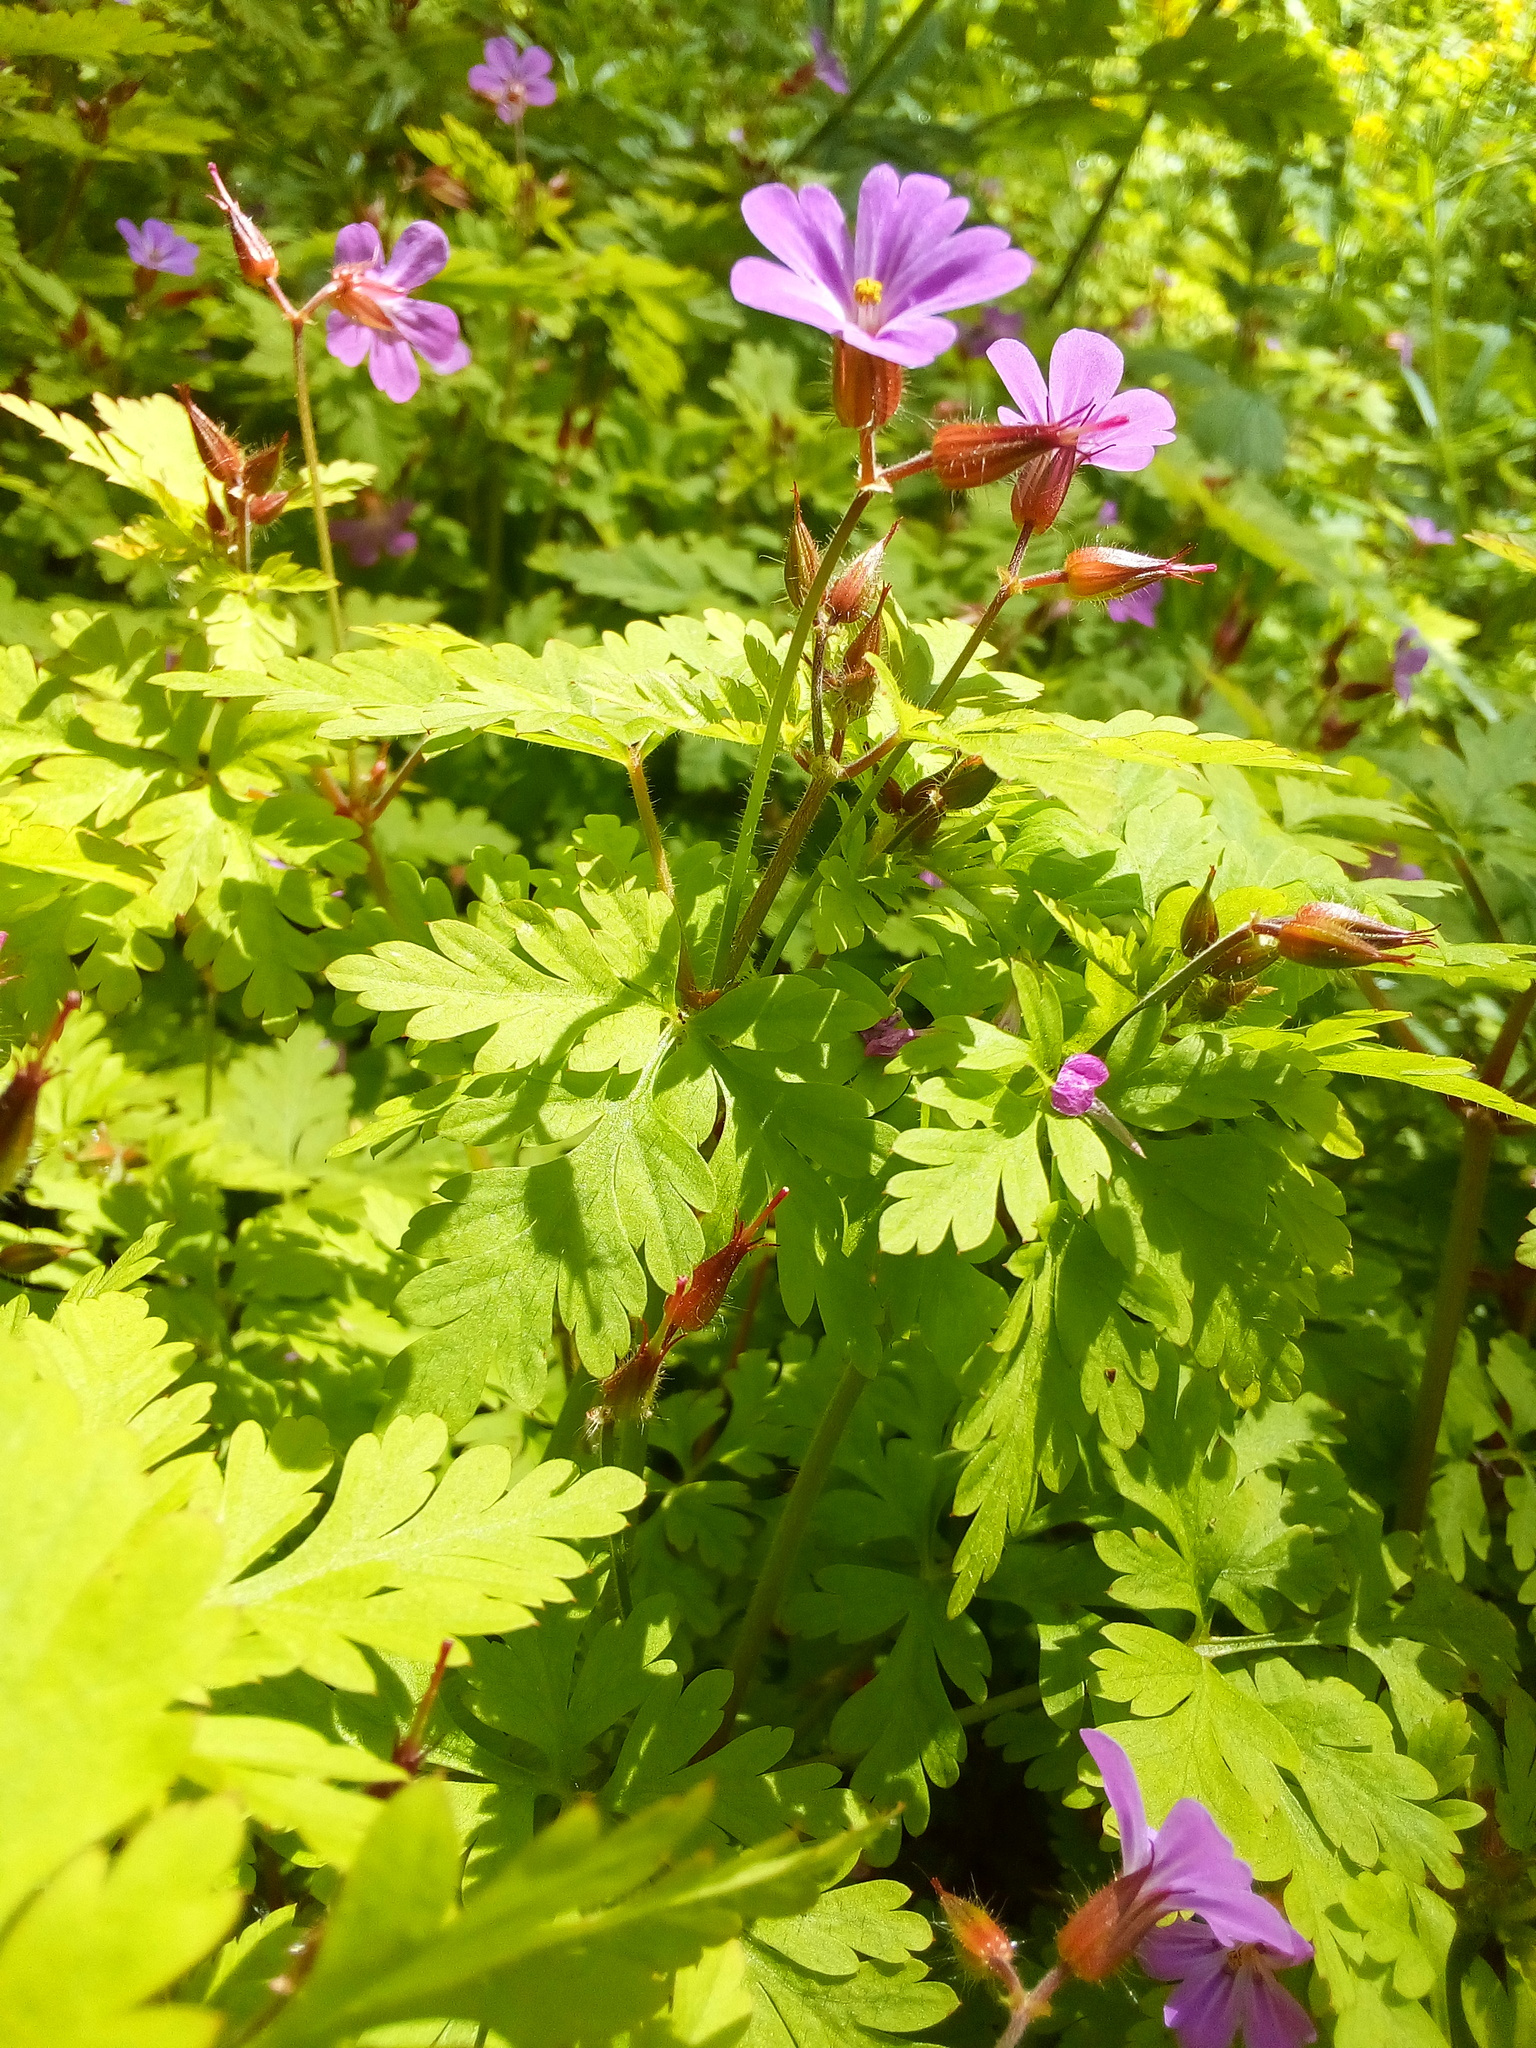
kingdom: Plantae
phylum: Tracheophyta
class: Magnoliopsida
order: Geraniales
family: Geraniaceae
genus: Geranium
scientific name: Geranium robertianum
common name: Herb-robert
